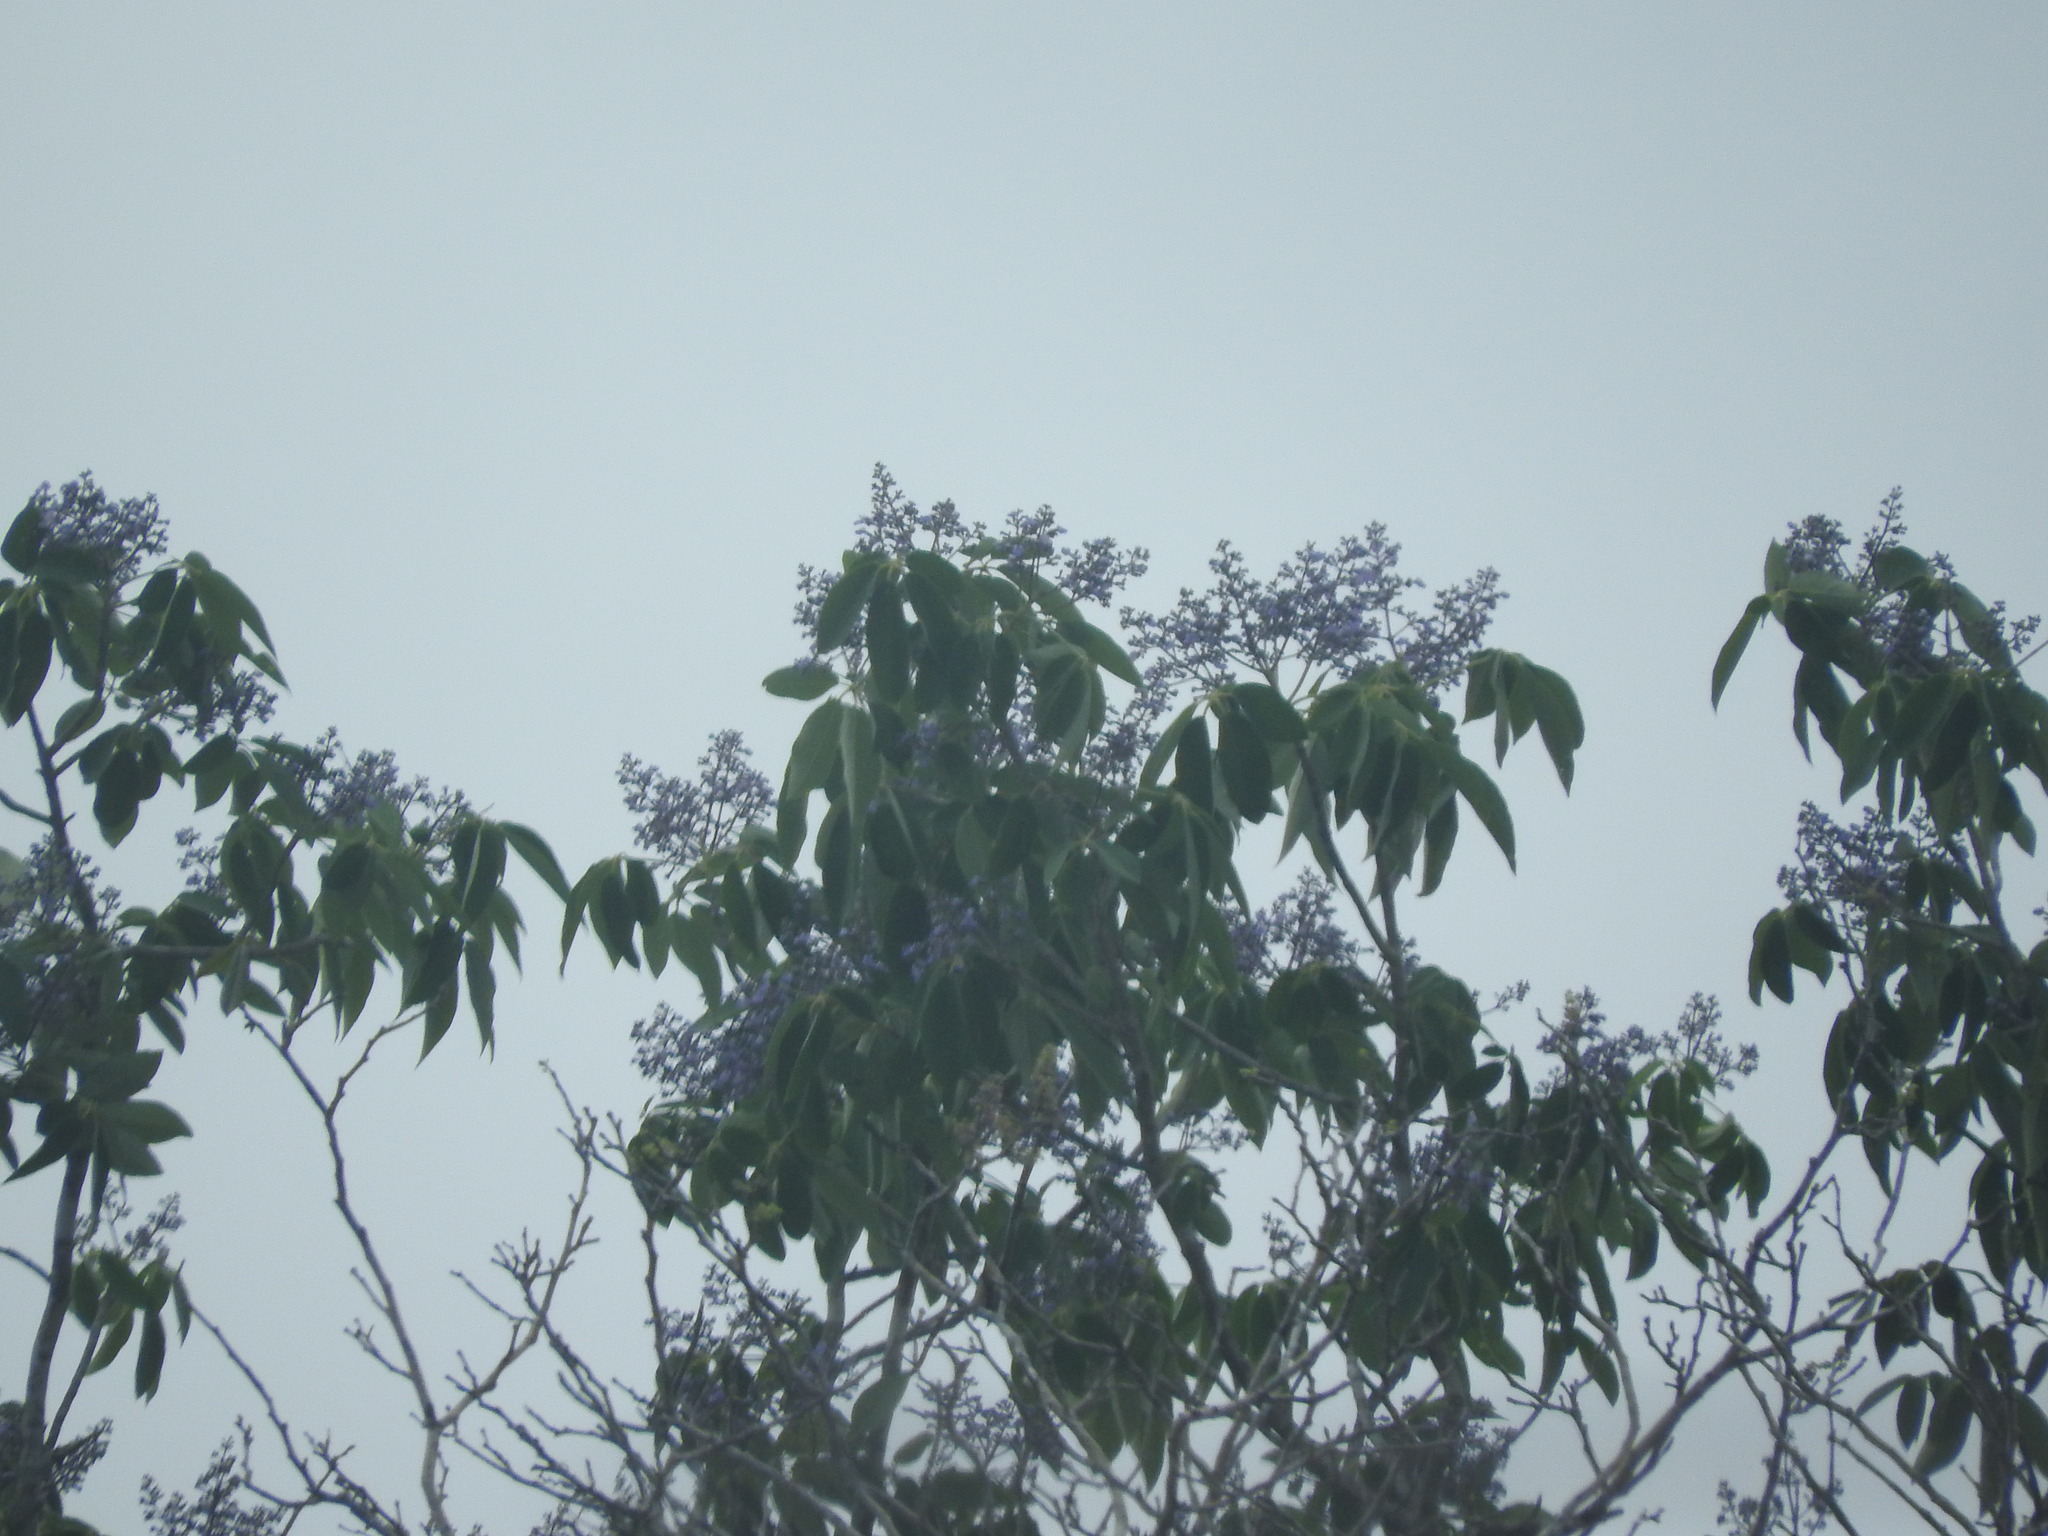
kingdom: Plantae
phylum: Tracheophyta
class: Magnoliopsida
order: Lamiales
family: Lamiaceae
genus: Vitex
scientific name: Vitex gaumeri
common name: Fiddlewood
